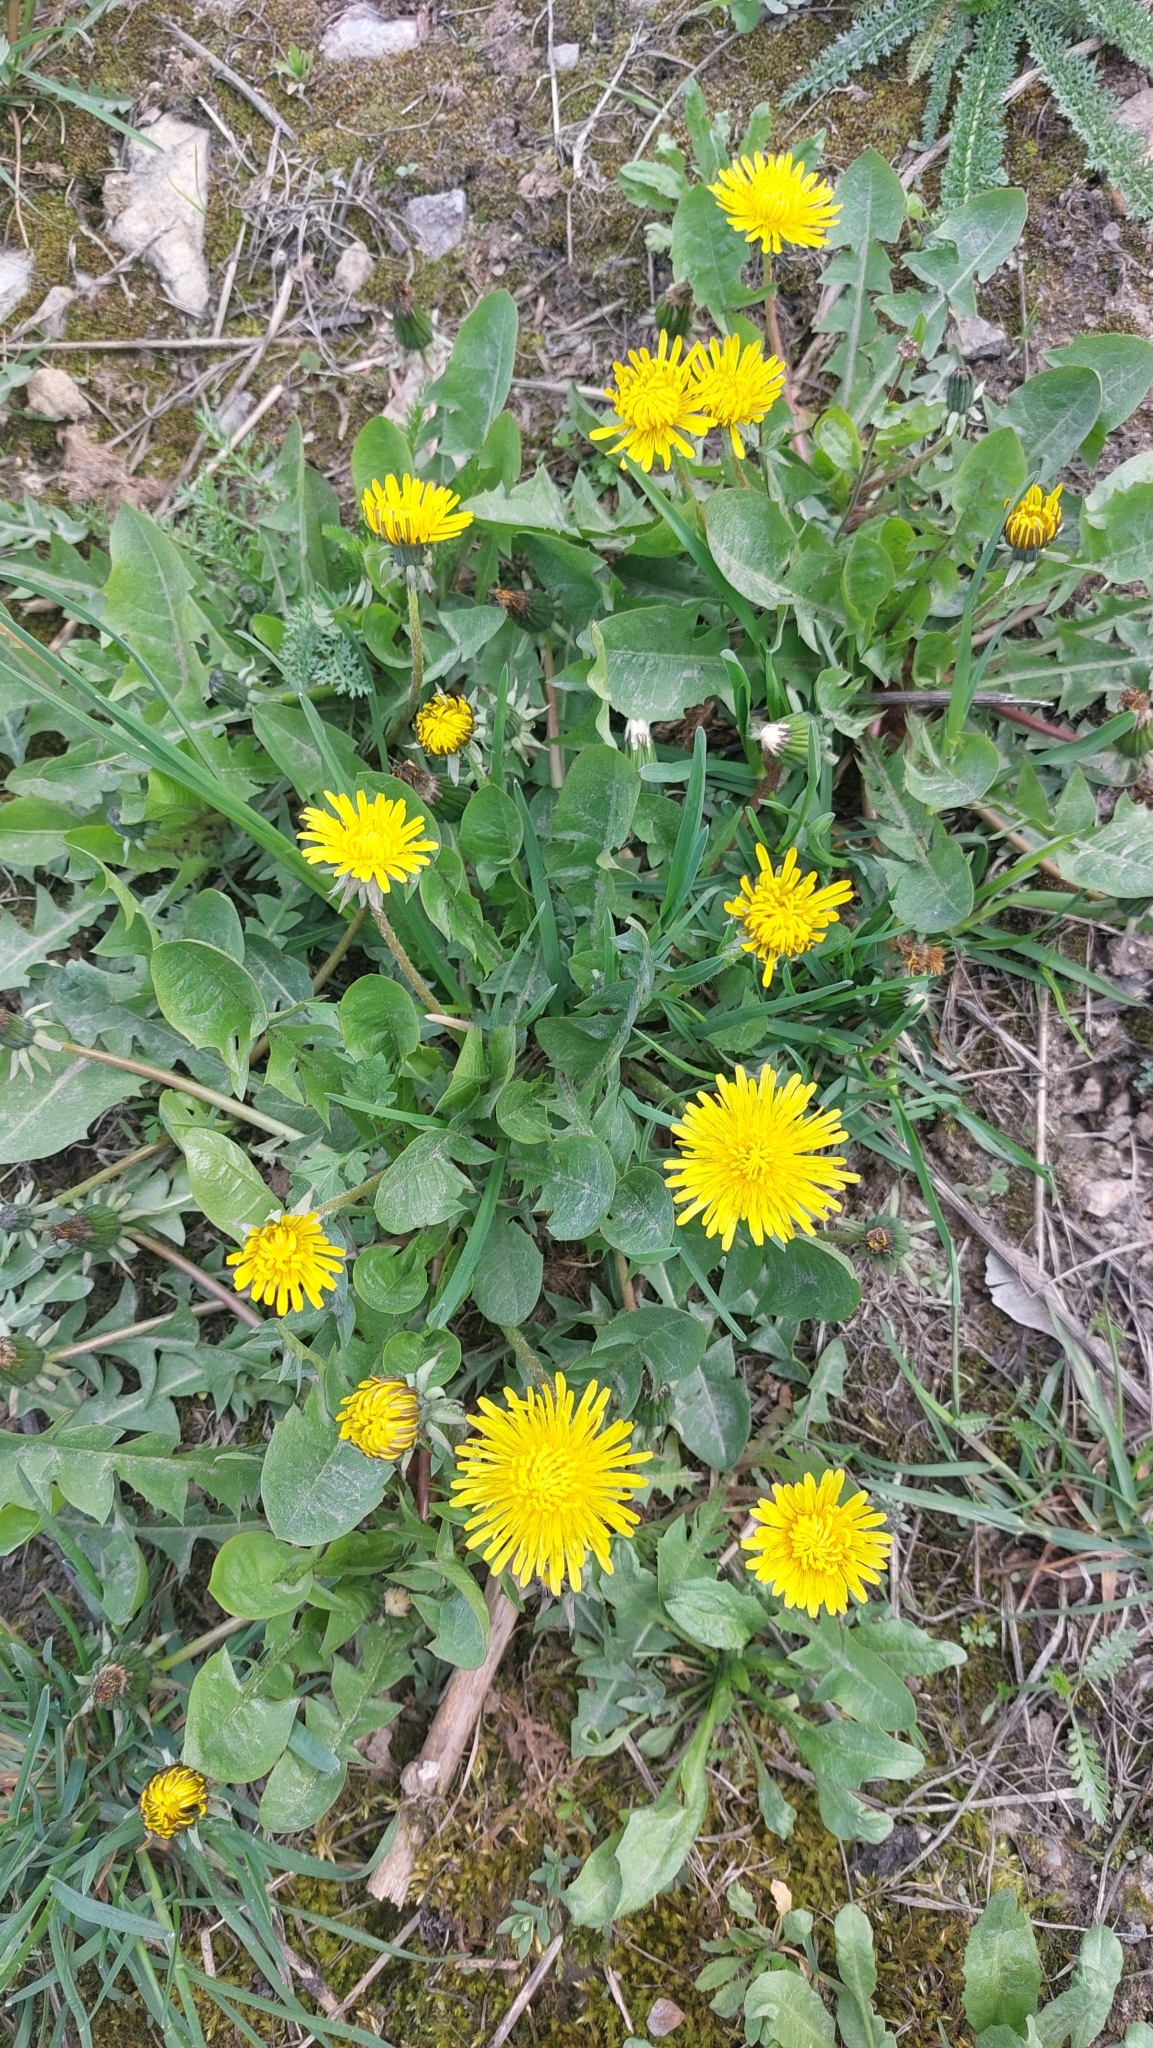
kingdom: Plantae
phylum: Tracheophyta
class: Magnoliopsida
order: Asterales
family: Asteraceae
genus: Taraxacum
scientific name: Taraxacum officinale
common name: Common dandelion
